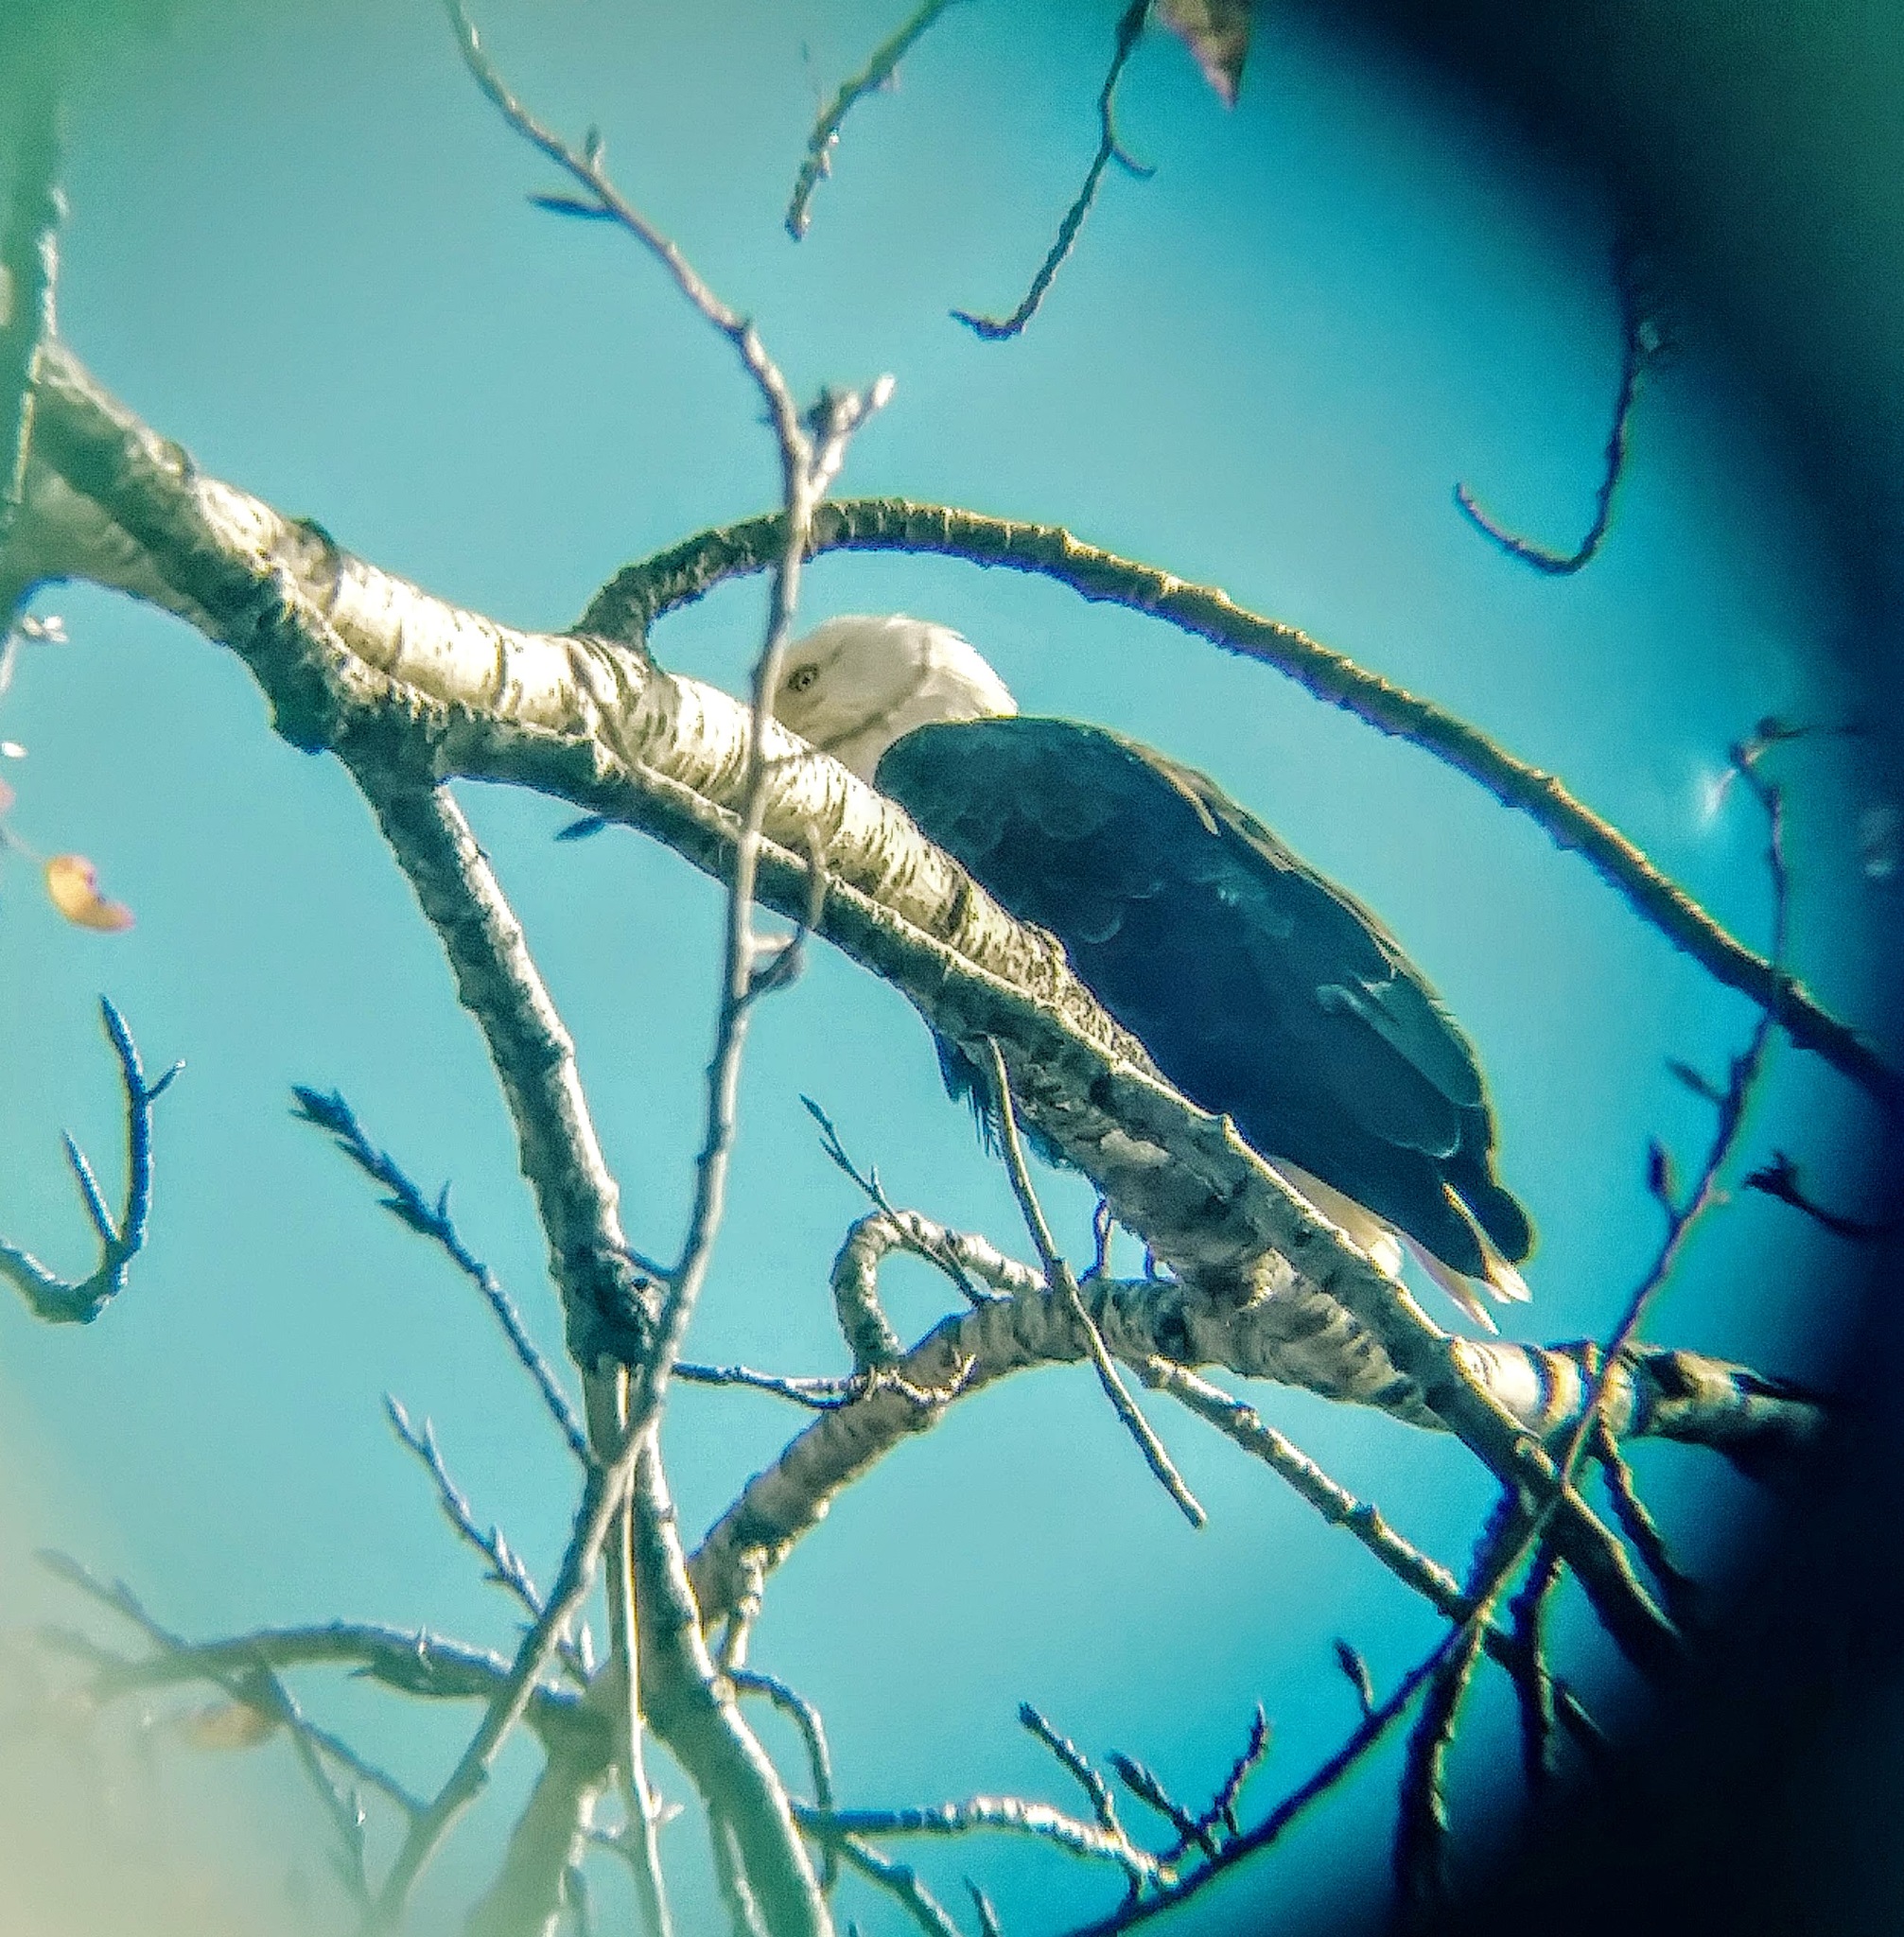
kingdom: Animalia
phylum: Chordata
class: Aves
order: Accipitriformes
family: Accipitridae
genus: Haliaeetus
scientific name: Haliaeetus leucocephalus
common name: Bald eagle
